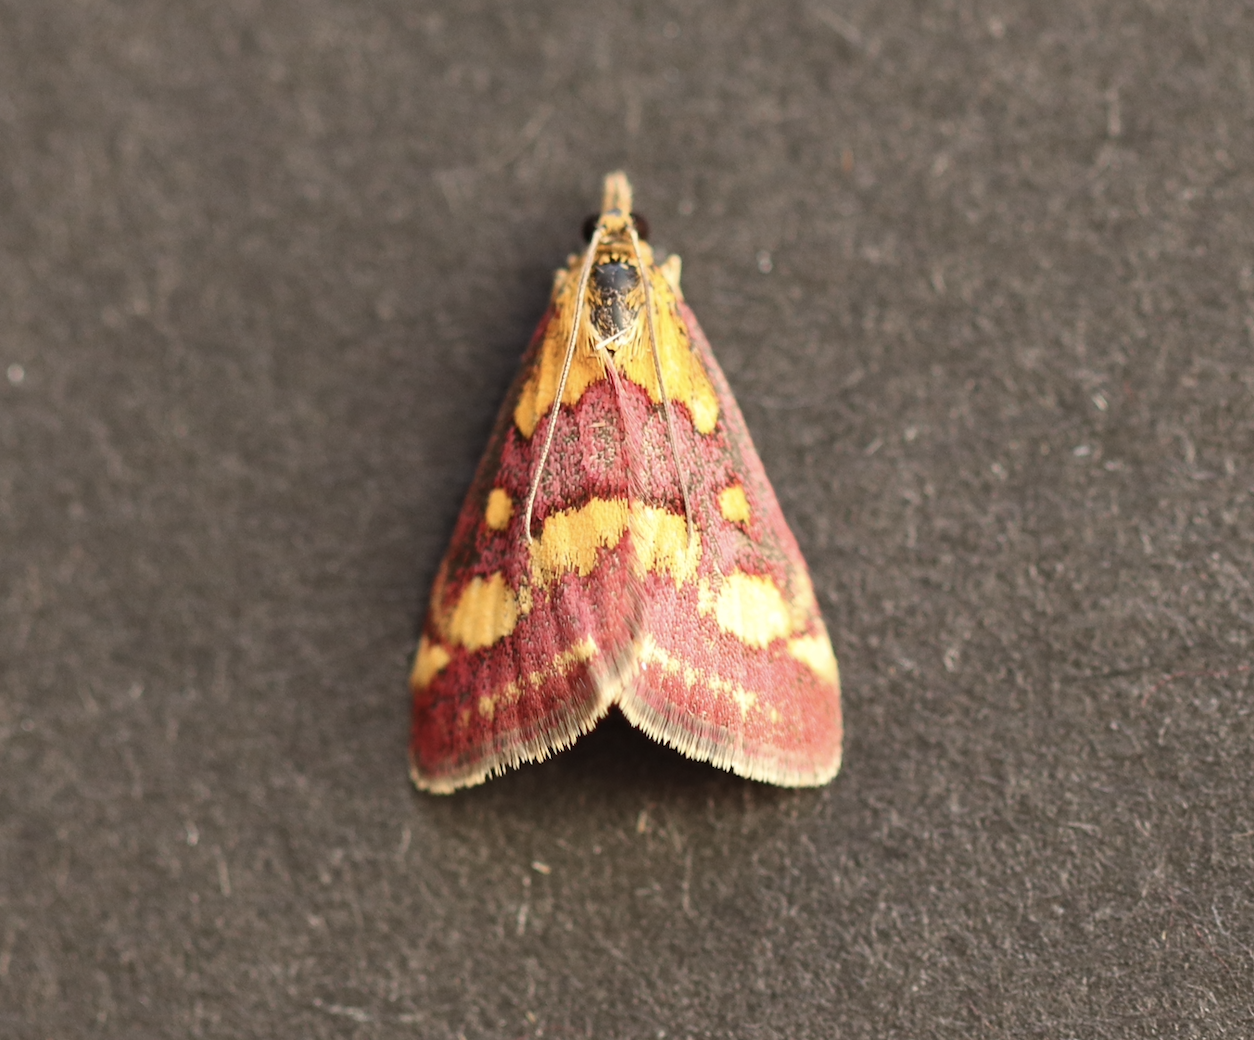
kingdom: Animalia
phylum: Arthropoda
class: Insecta
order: Lepidoptera
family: Crambidae
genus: Pyrausta
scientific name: Pyrausta purpuralis
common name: Common purple & gold
